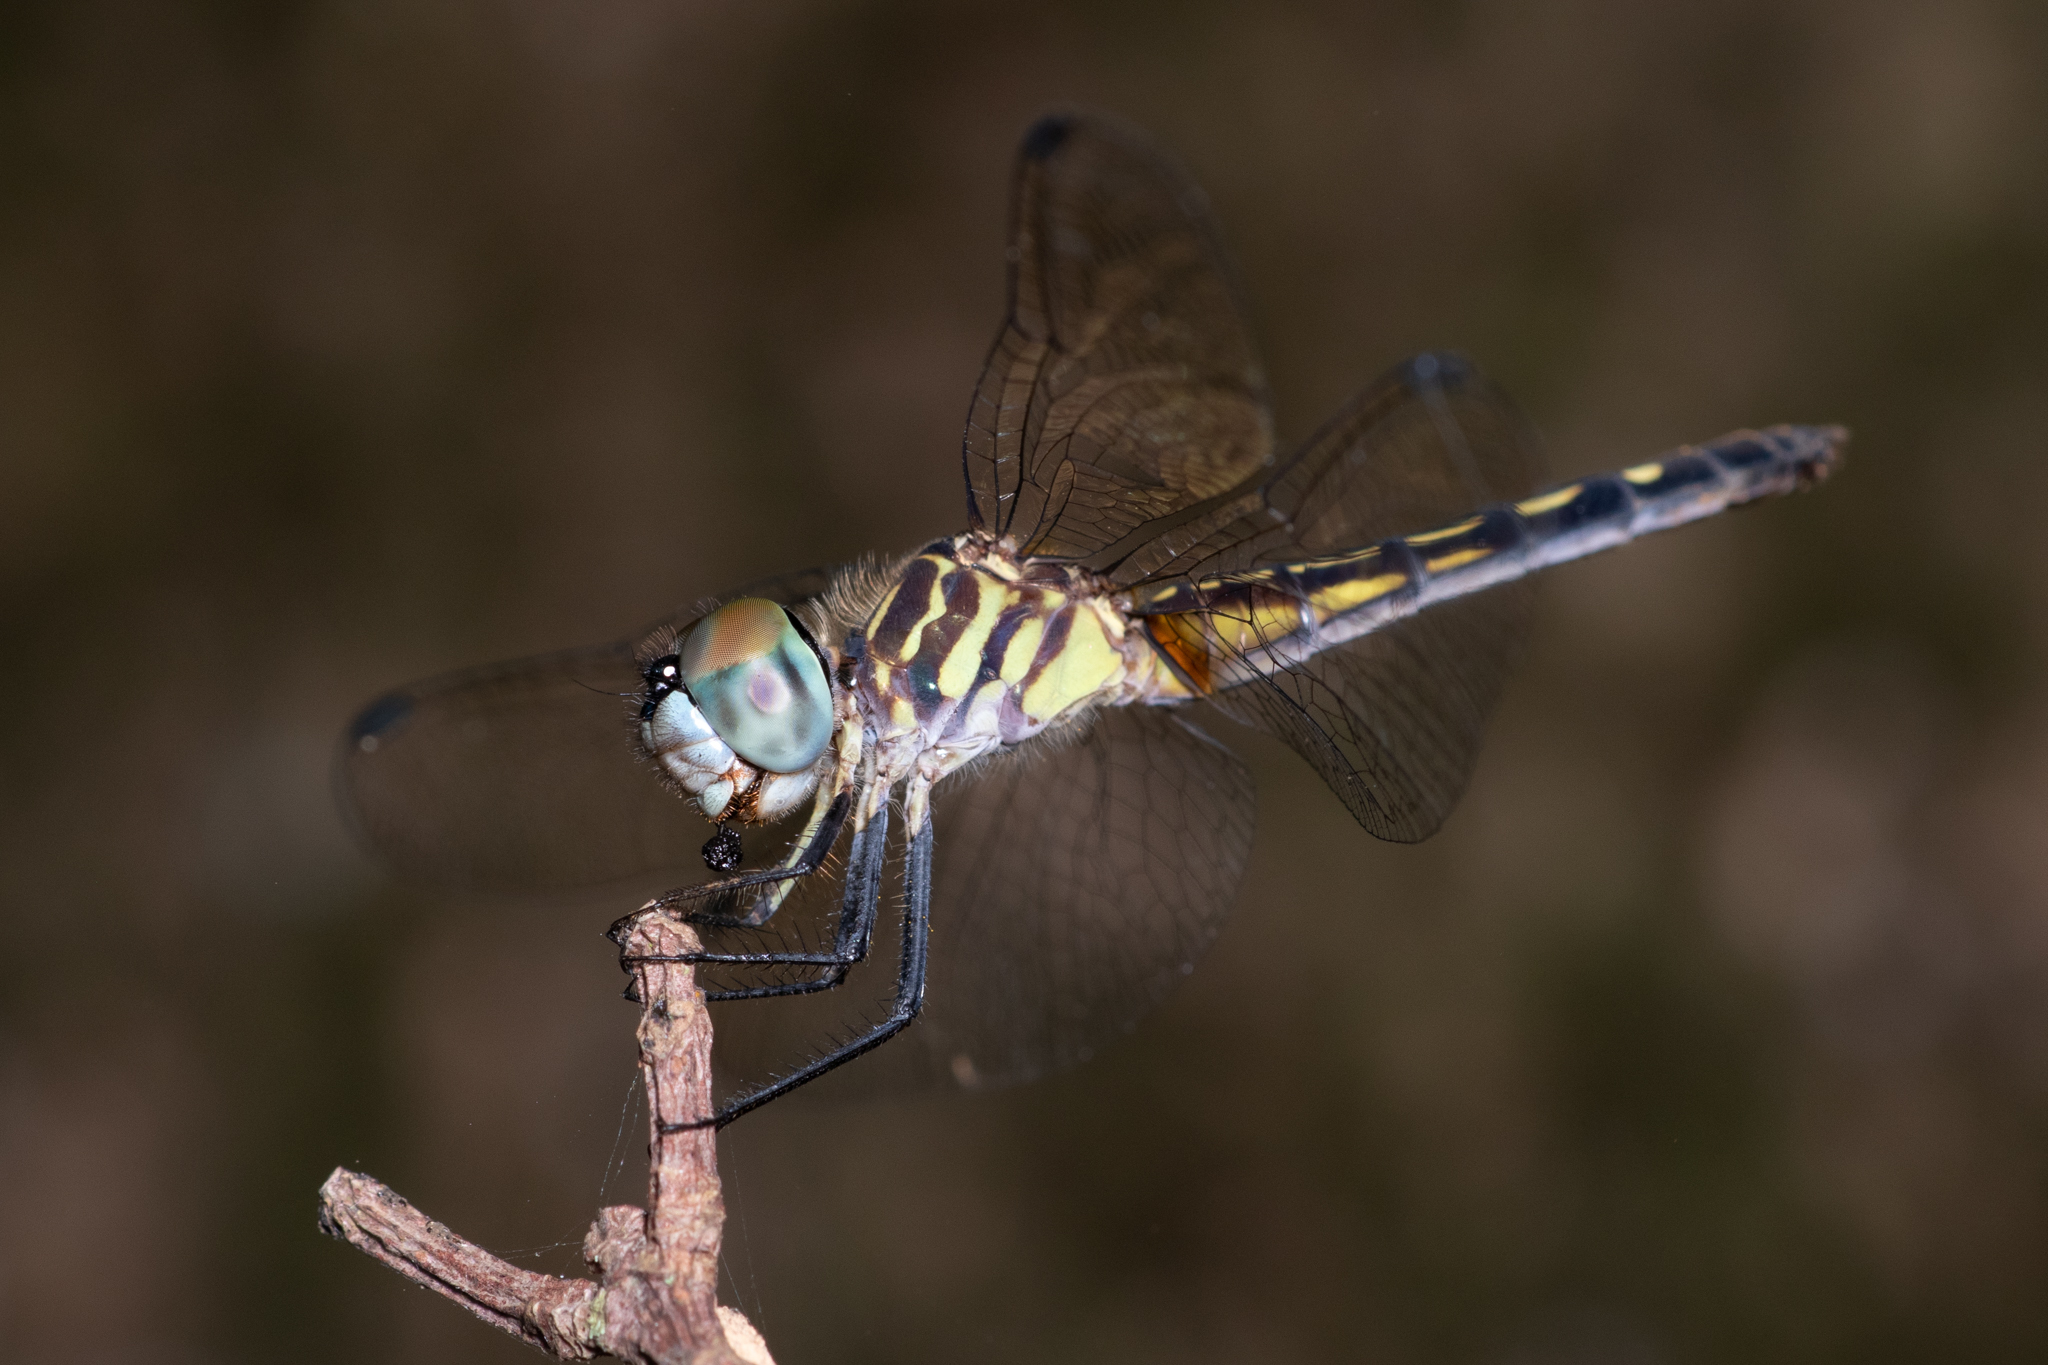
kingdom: Animalia
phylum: Arthropoda
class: Insecta
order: Odonata
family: Libellulidae
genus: Pachydiplax
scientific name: Pachydiplax longipennis
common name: Blue dasher
